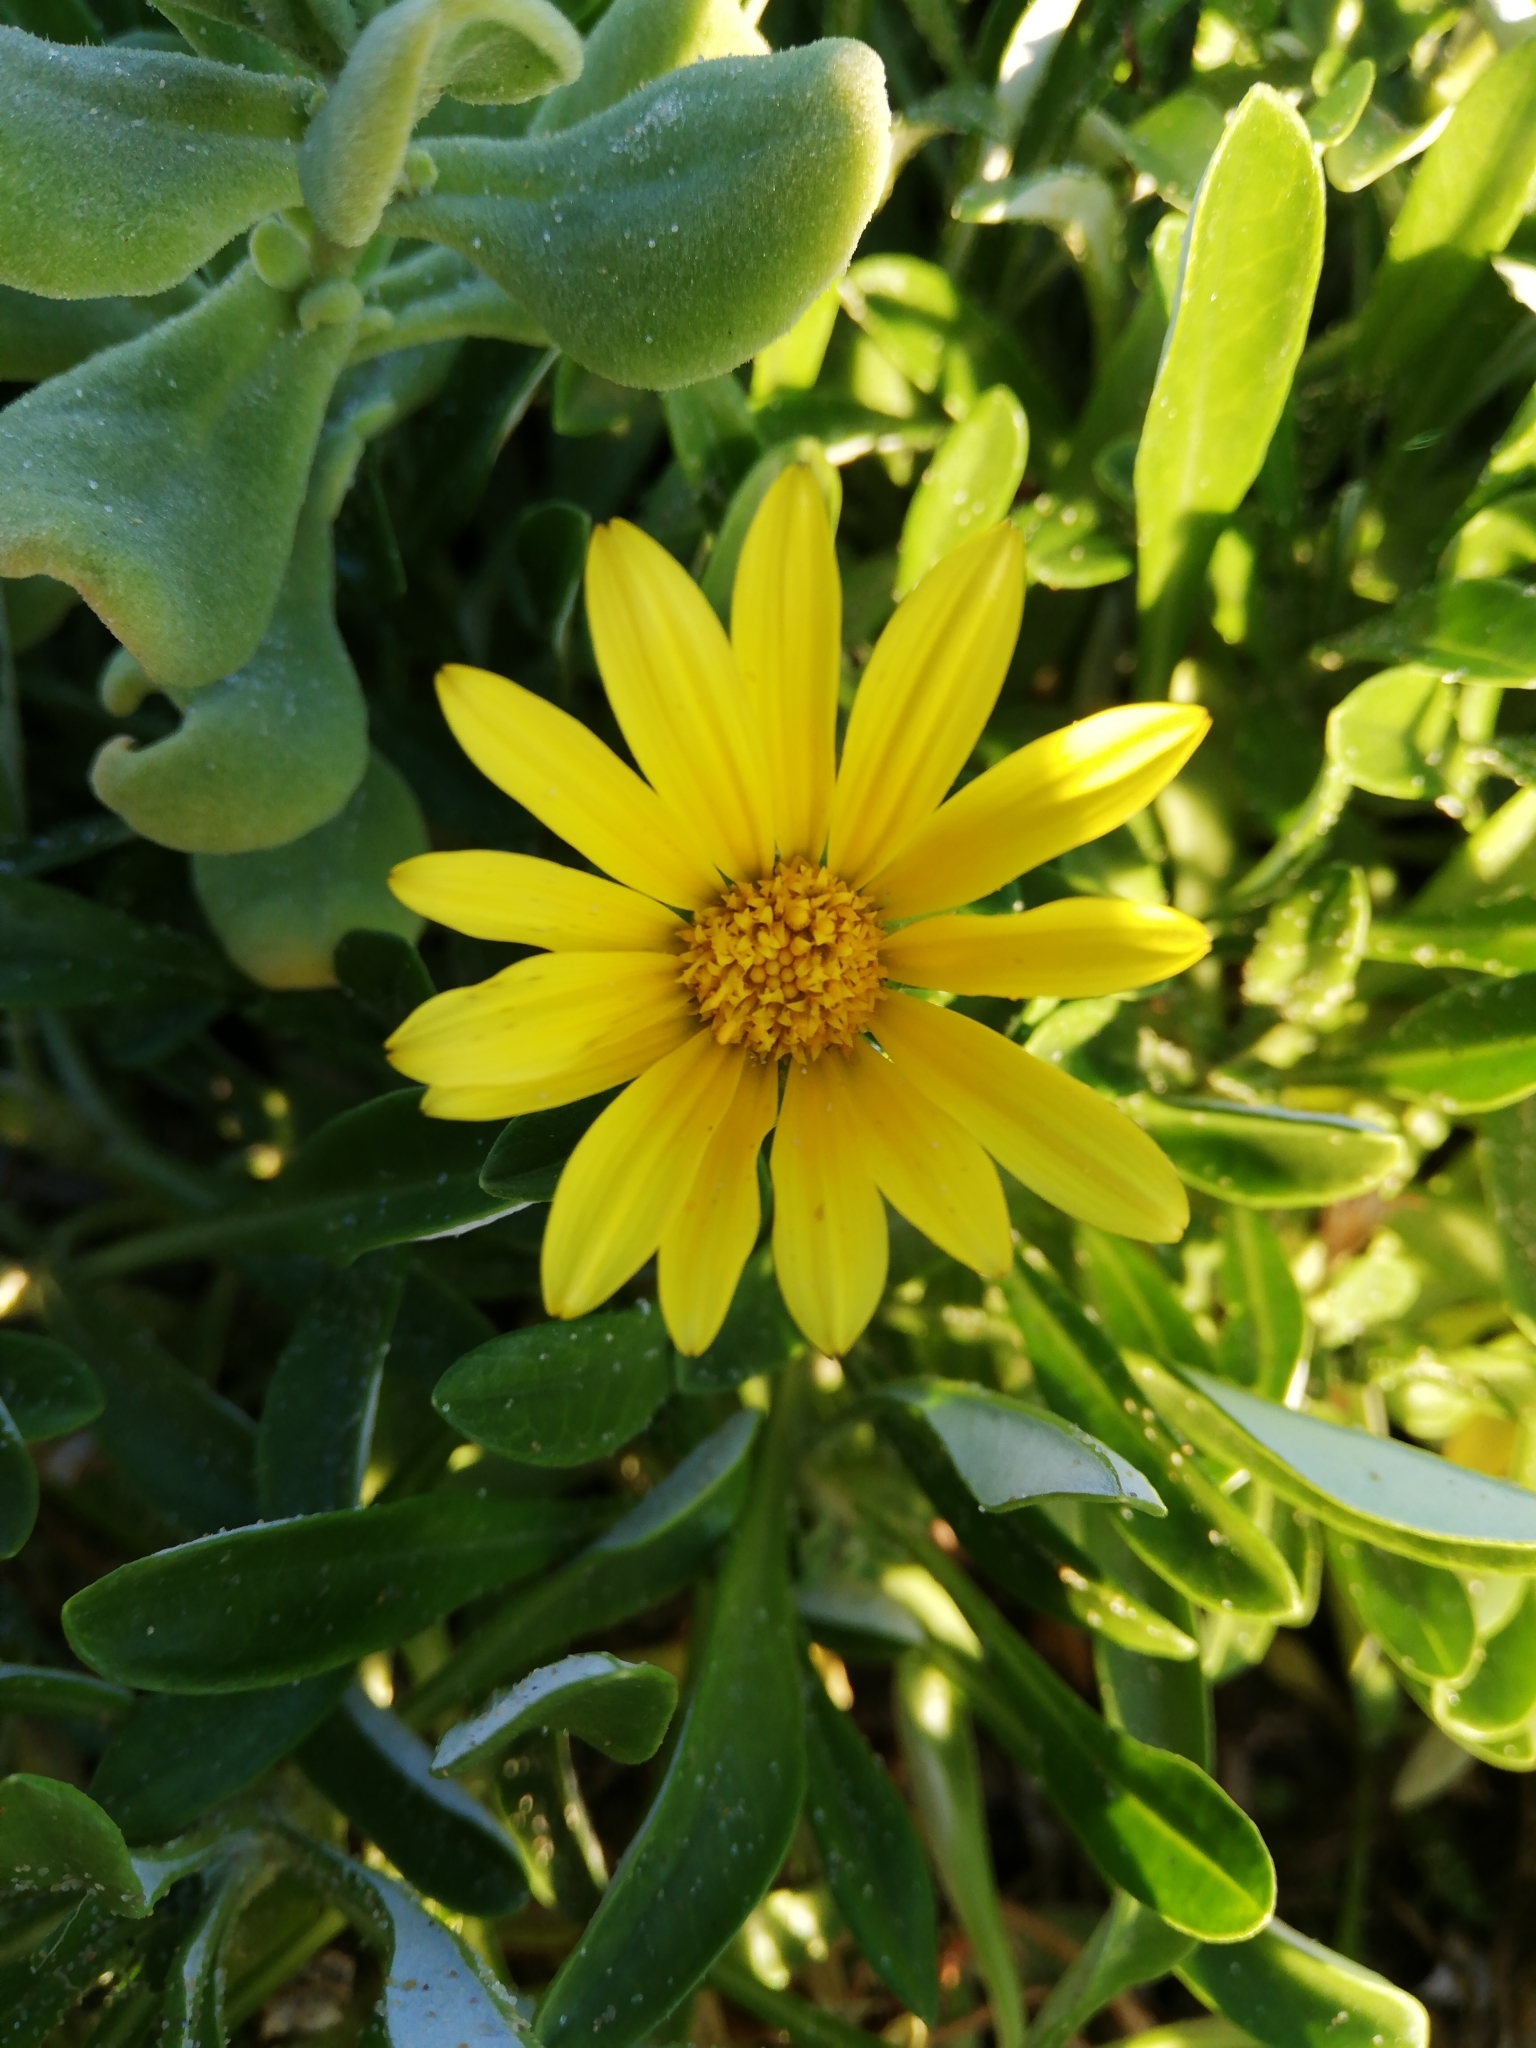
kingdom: Plantae
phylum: Tracheophyta
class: Magnoliopsida
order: Asterales
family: Asteraceae
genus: Gazania
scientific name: Gazania rigens
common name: Treasureflower
